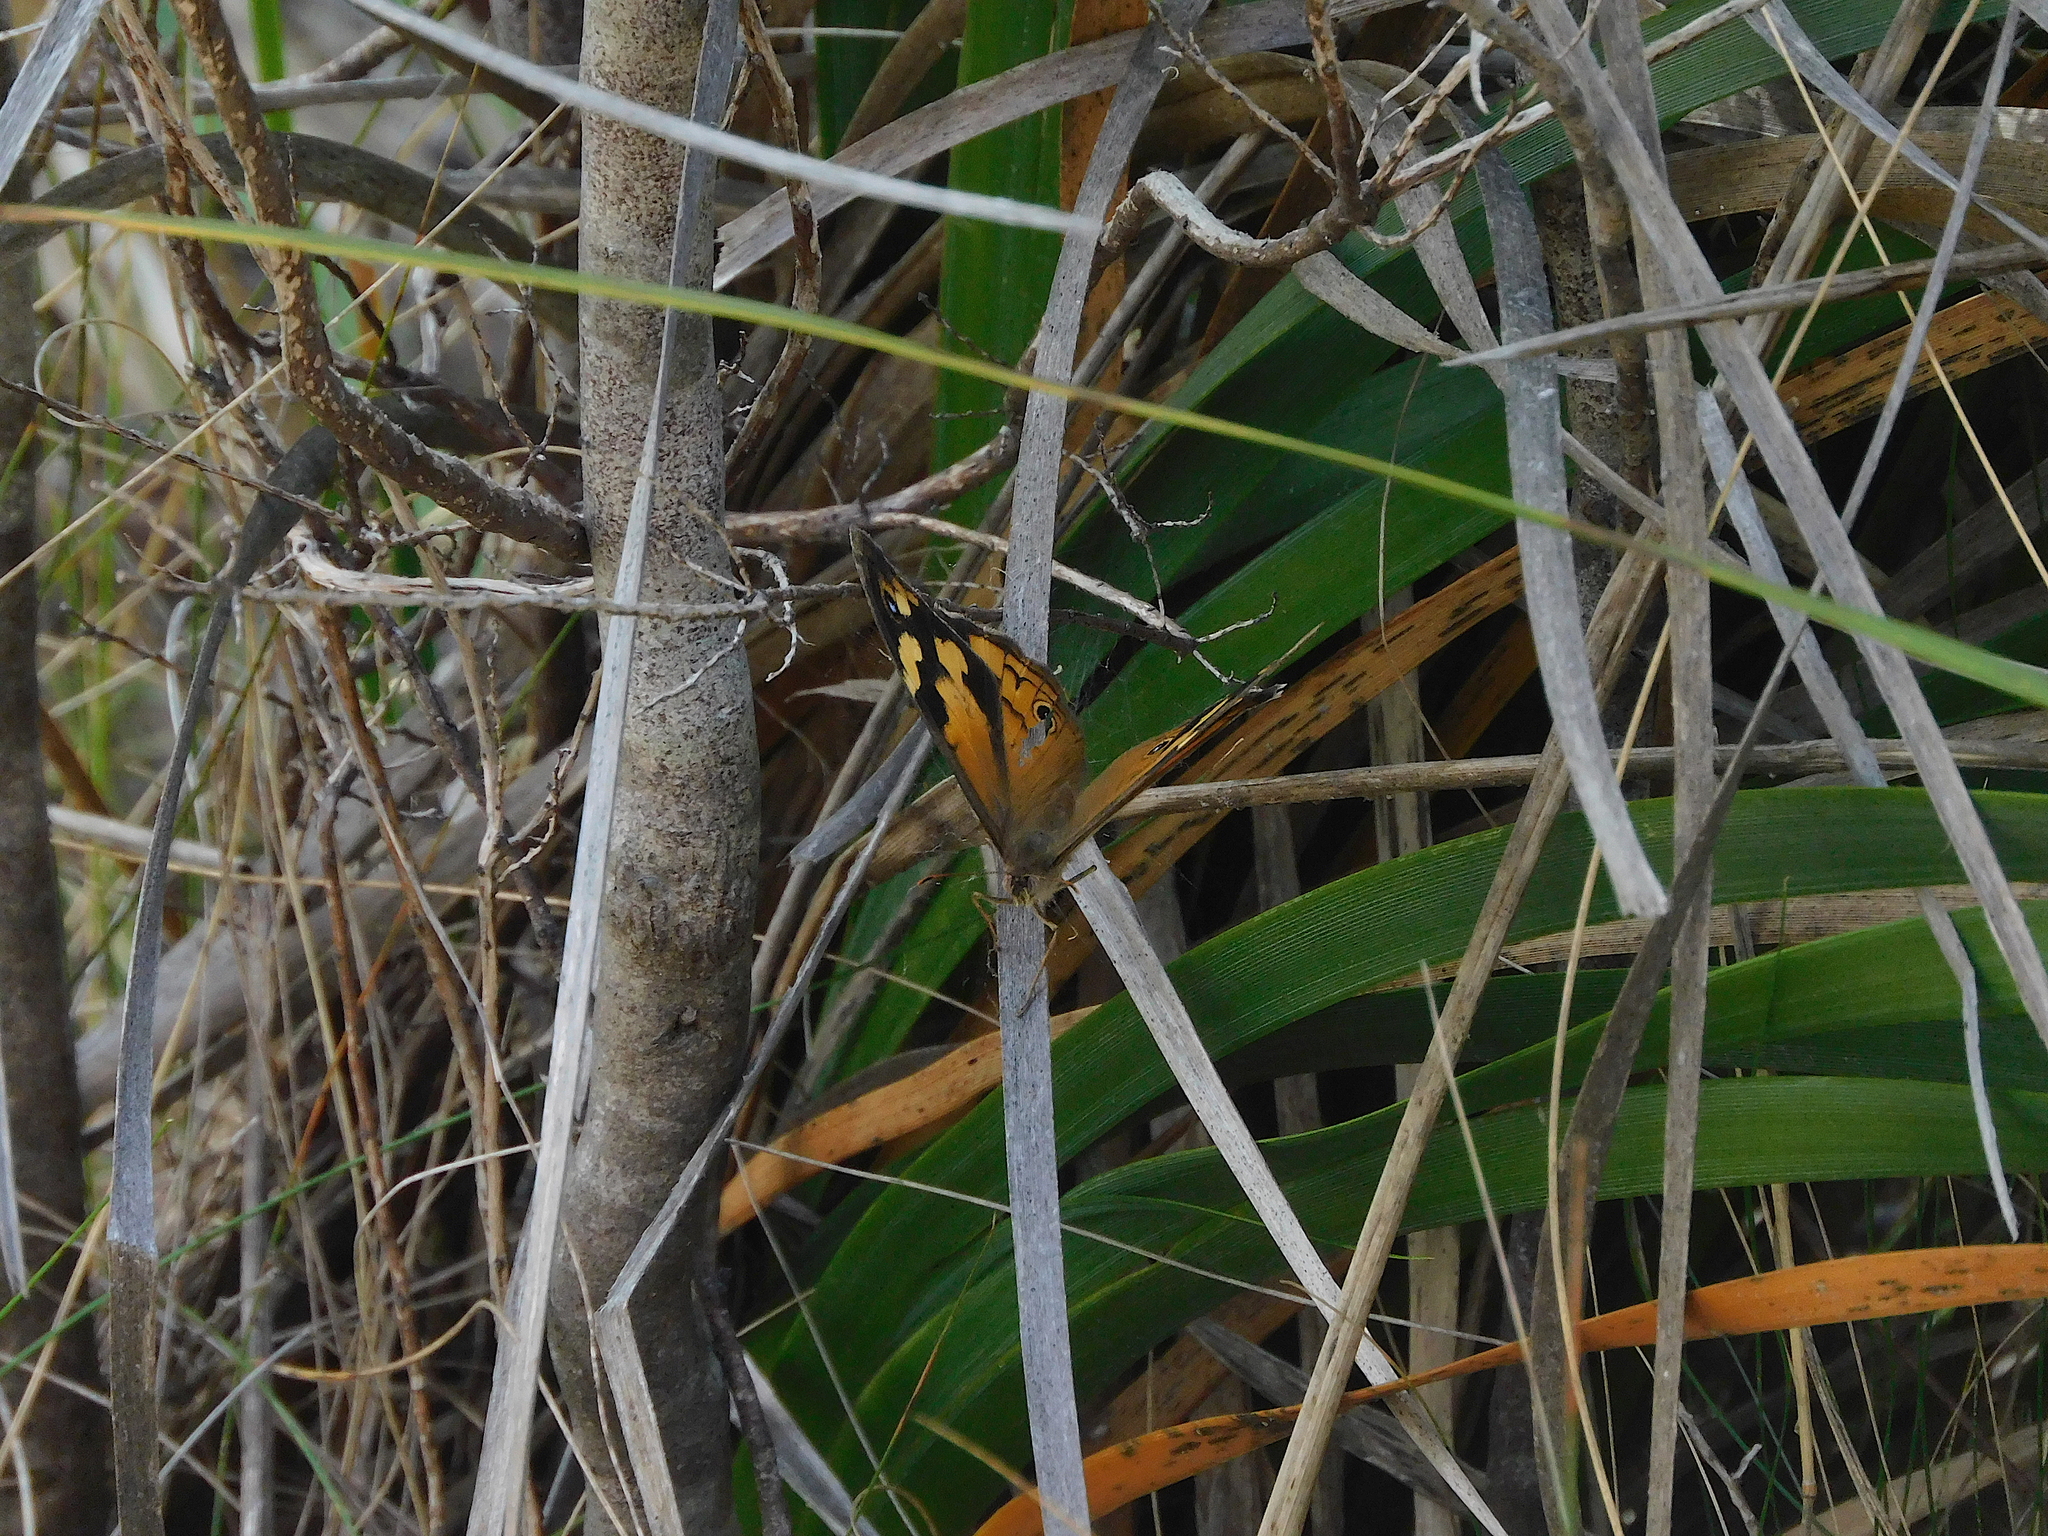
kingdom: Animalia
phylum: Arthropoda
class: Insecta
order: Lepidoptera
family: Nymphalidae
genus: Heteronympha
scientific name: Heteronympha merope
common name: Common brown
